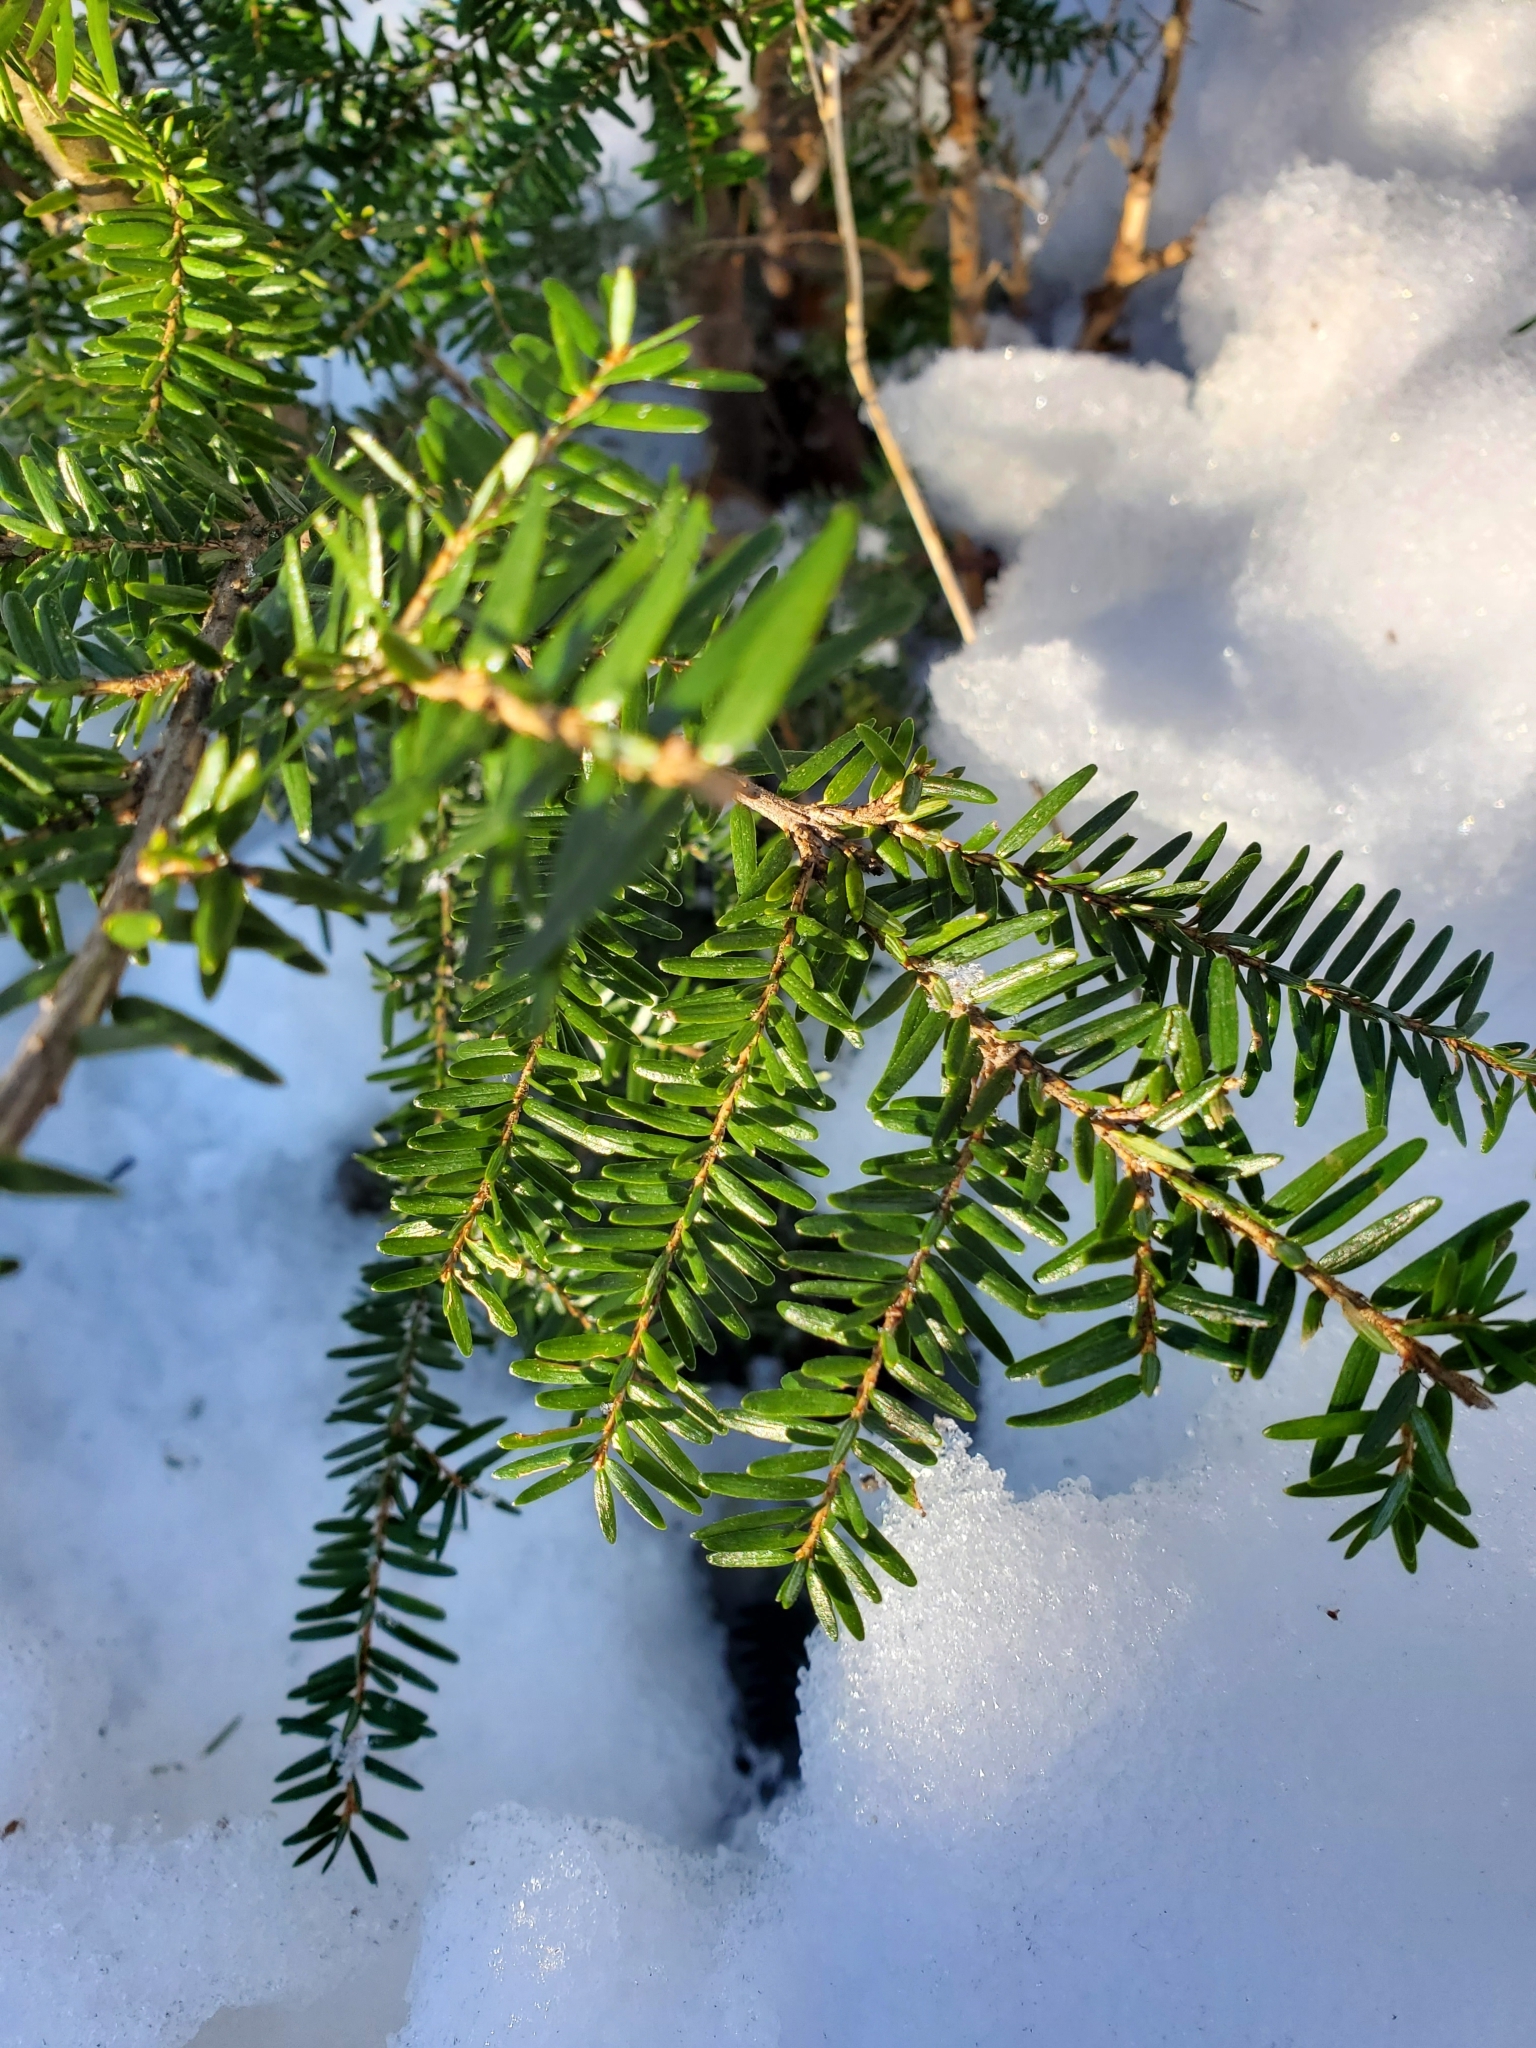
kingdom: Plantae
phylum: Tracheophyta
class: Pinopsida
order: Pinales
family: Pinaceae
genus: Tsuga
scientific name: Tsuga canadensis
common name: Eastern hemlock
